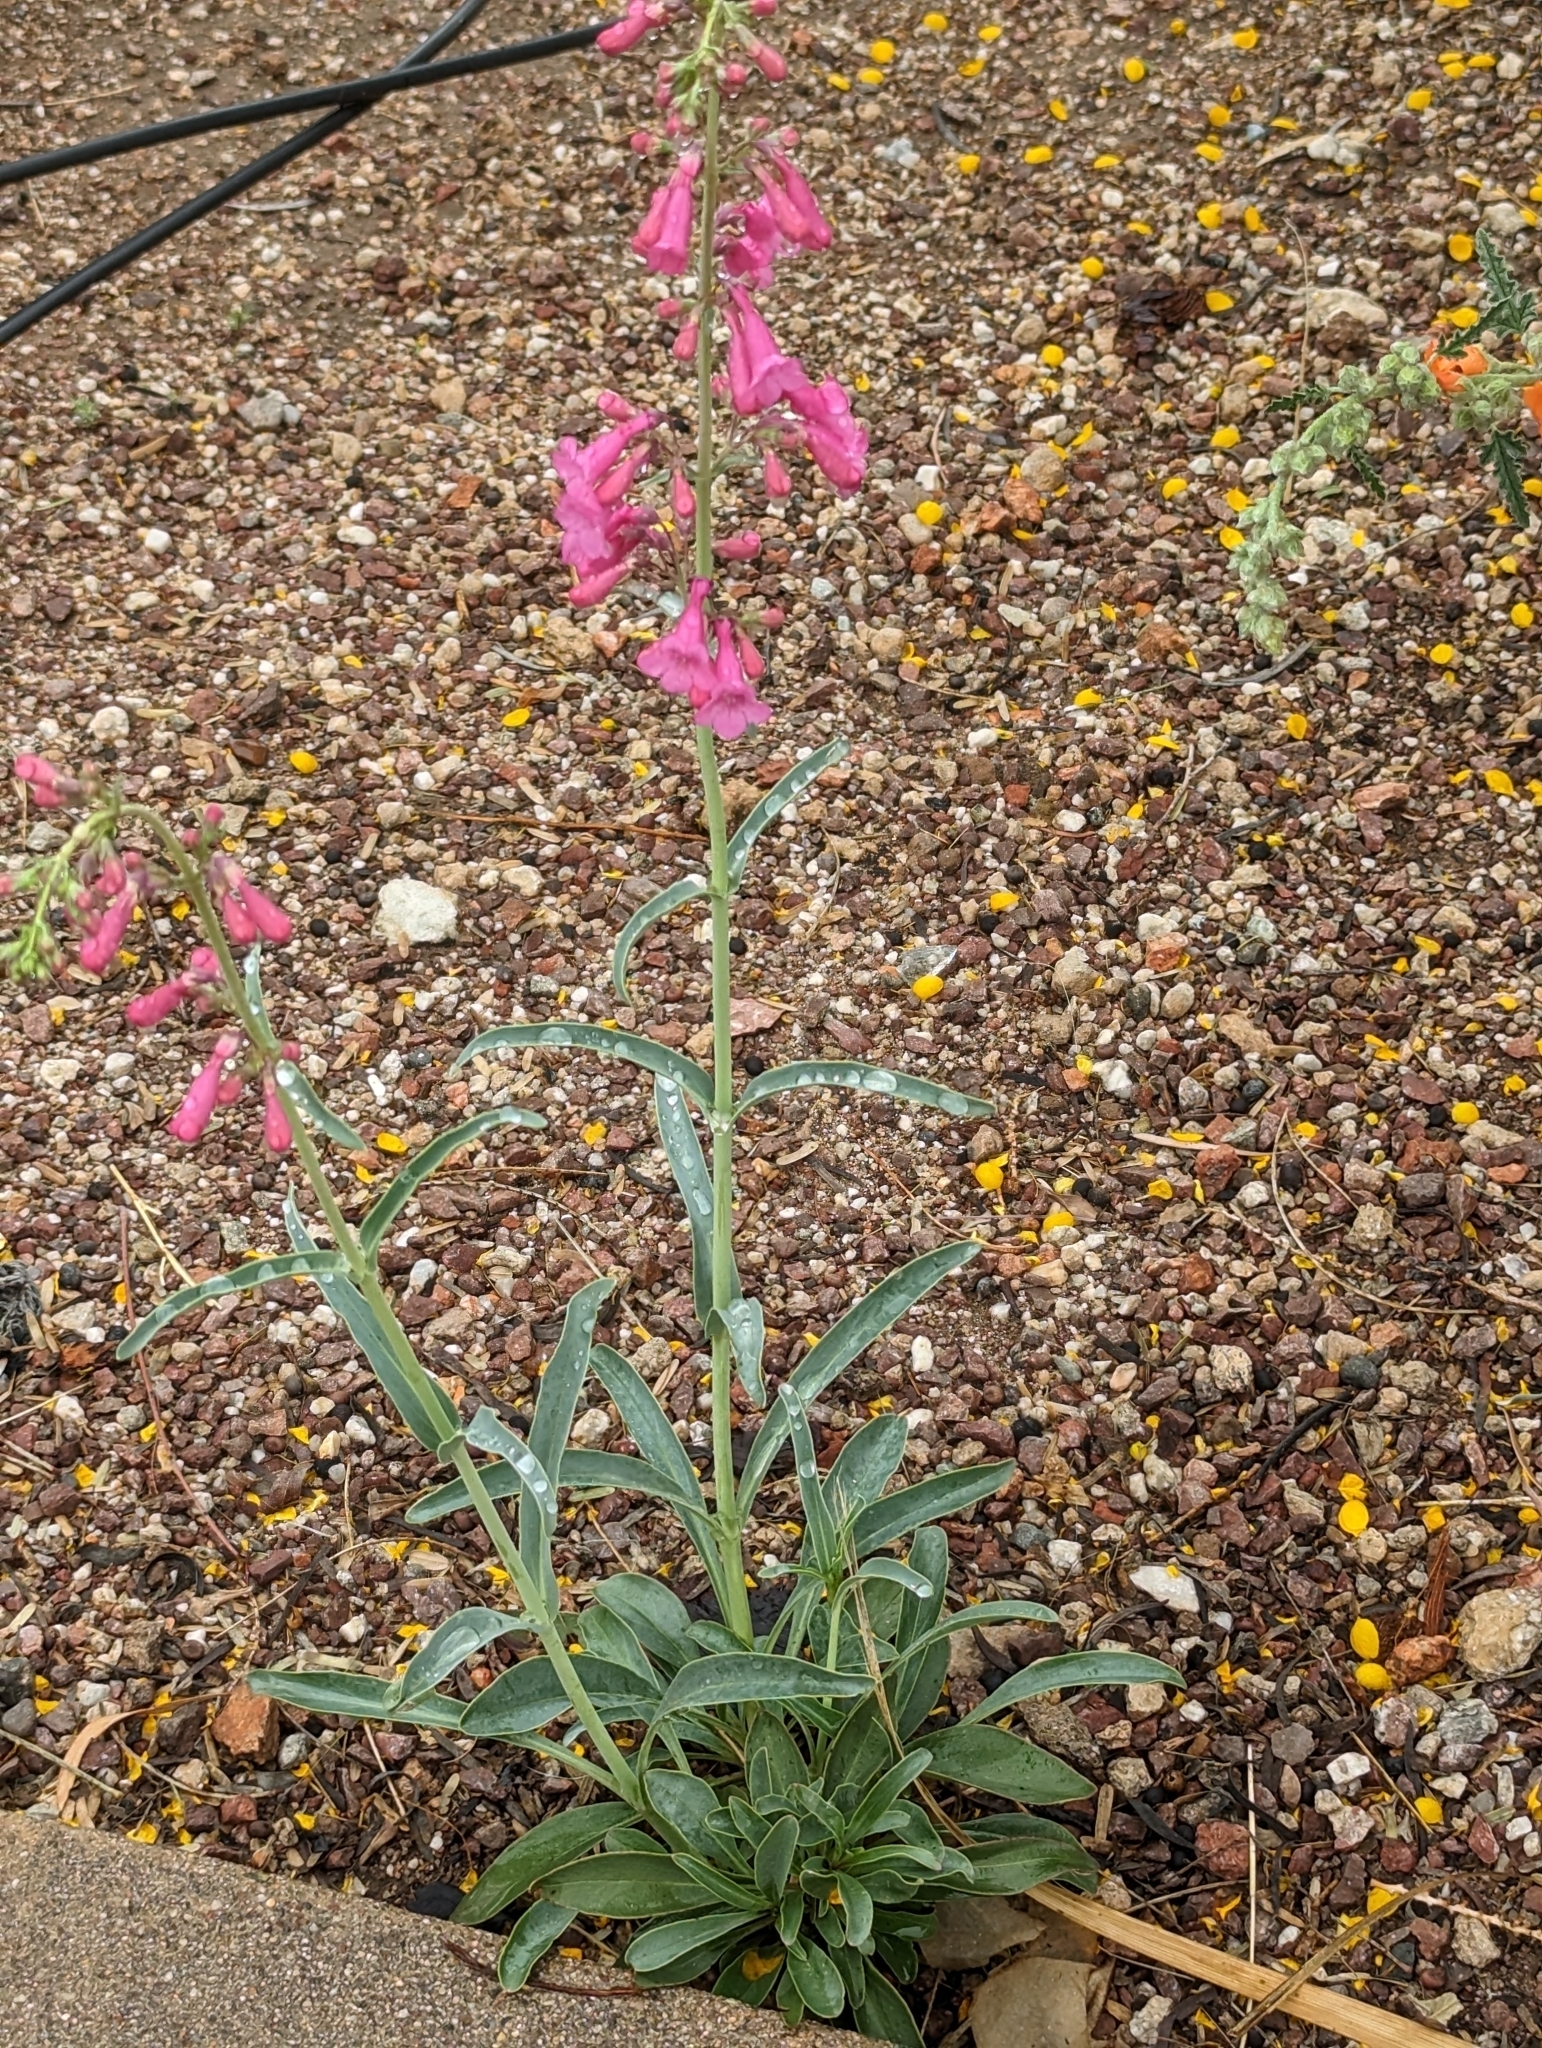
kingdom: Plantae
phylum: Tracheophyta
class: Magnoliopsida
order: Lamiales
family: Plantaginaceae
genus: Penstemon
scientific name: Penstemon parryi
